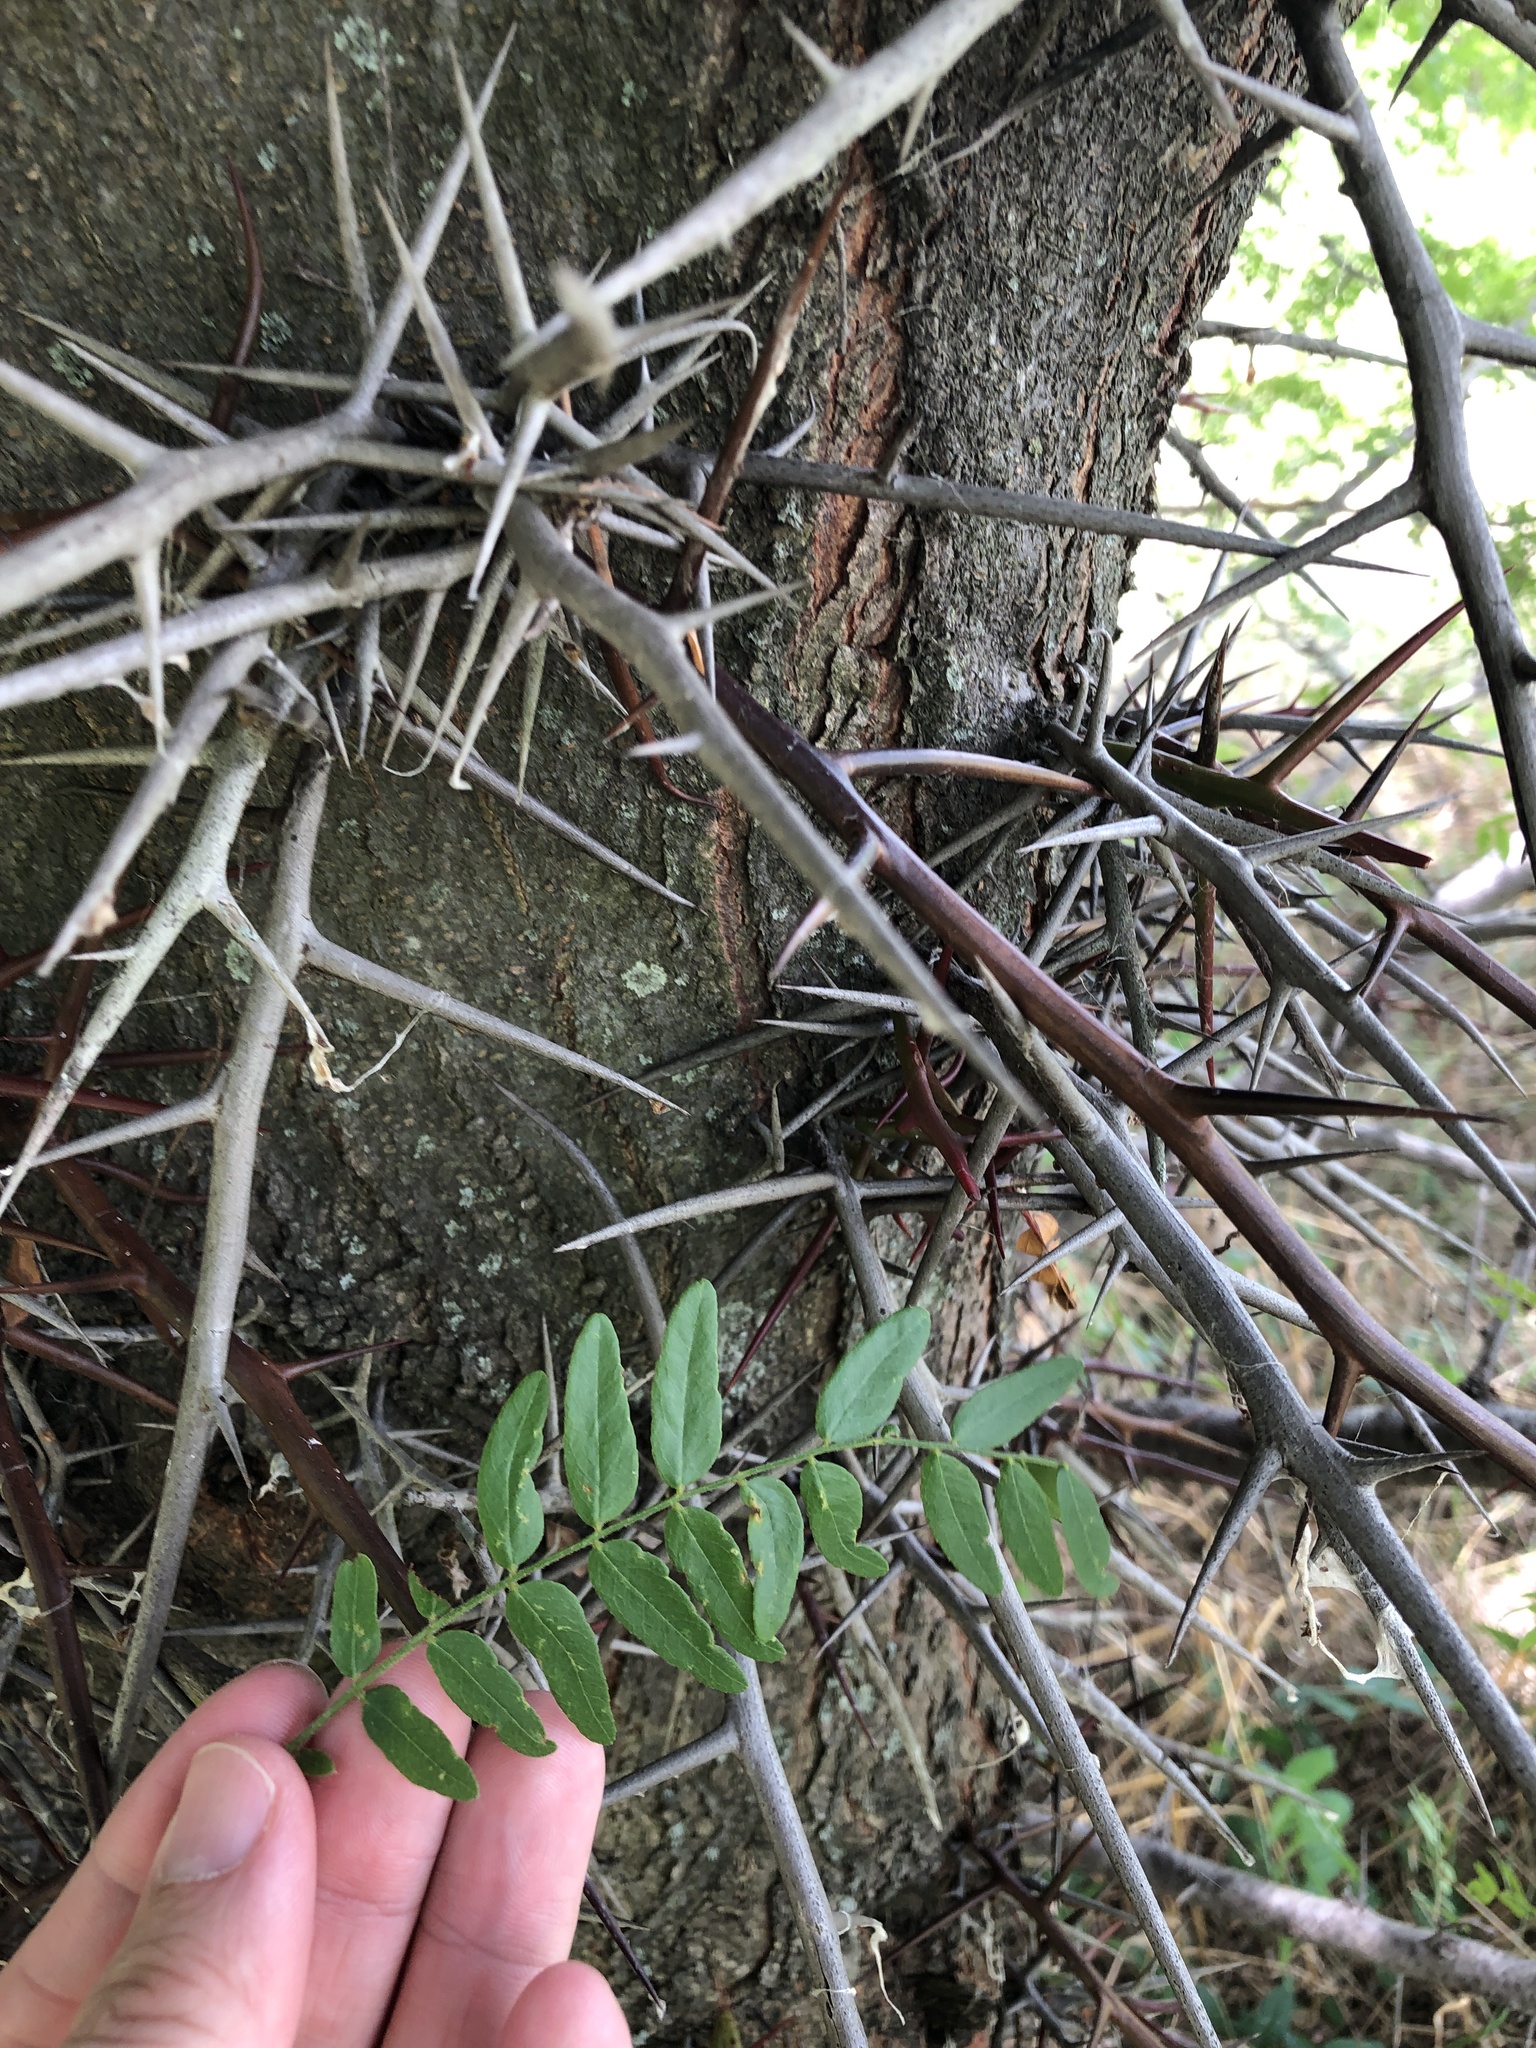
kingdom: Plantae
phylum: Tracheophyta
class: Magnoliopsida
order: Fabales
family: Fabaceae
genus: Gleditsia
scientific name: Gleditsia triacanthos
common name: Common honeylocust
